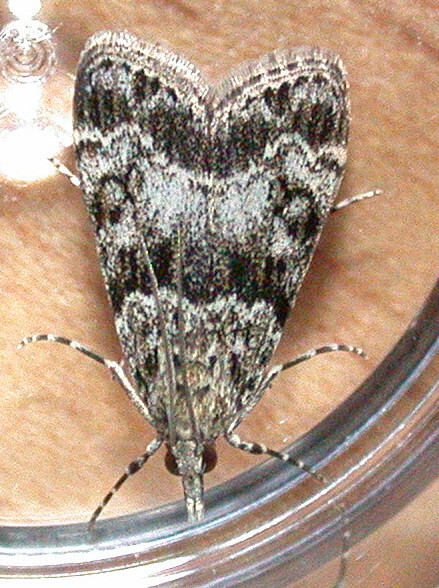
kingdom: Animalia
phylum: Arthropoda
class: Insecta
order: Lepidoptera
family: Crambidae
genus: Eudonia
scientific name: Eudonia mercurella
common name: Small grey
